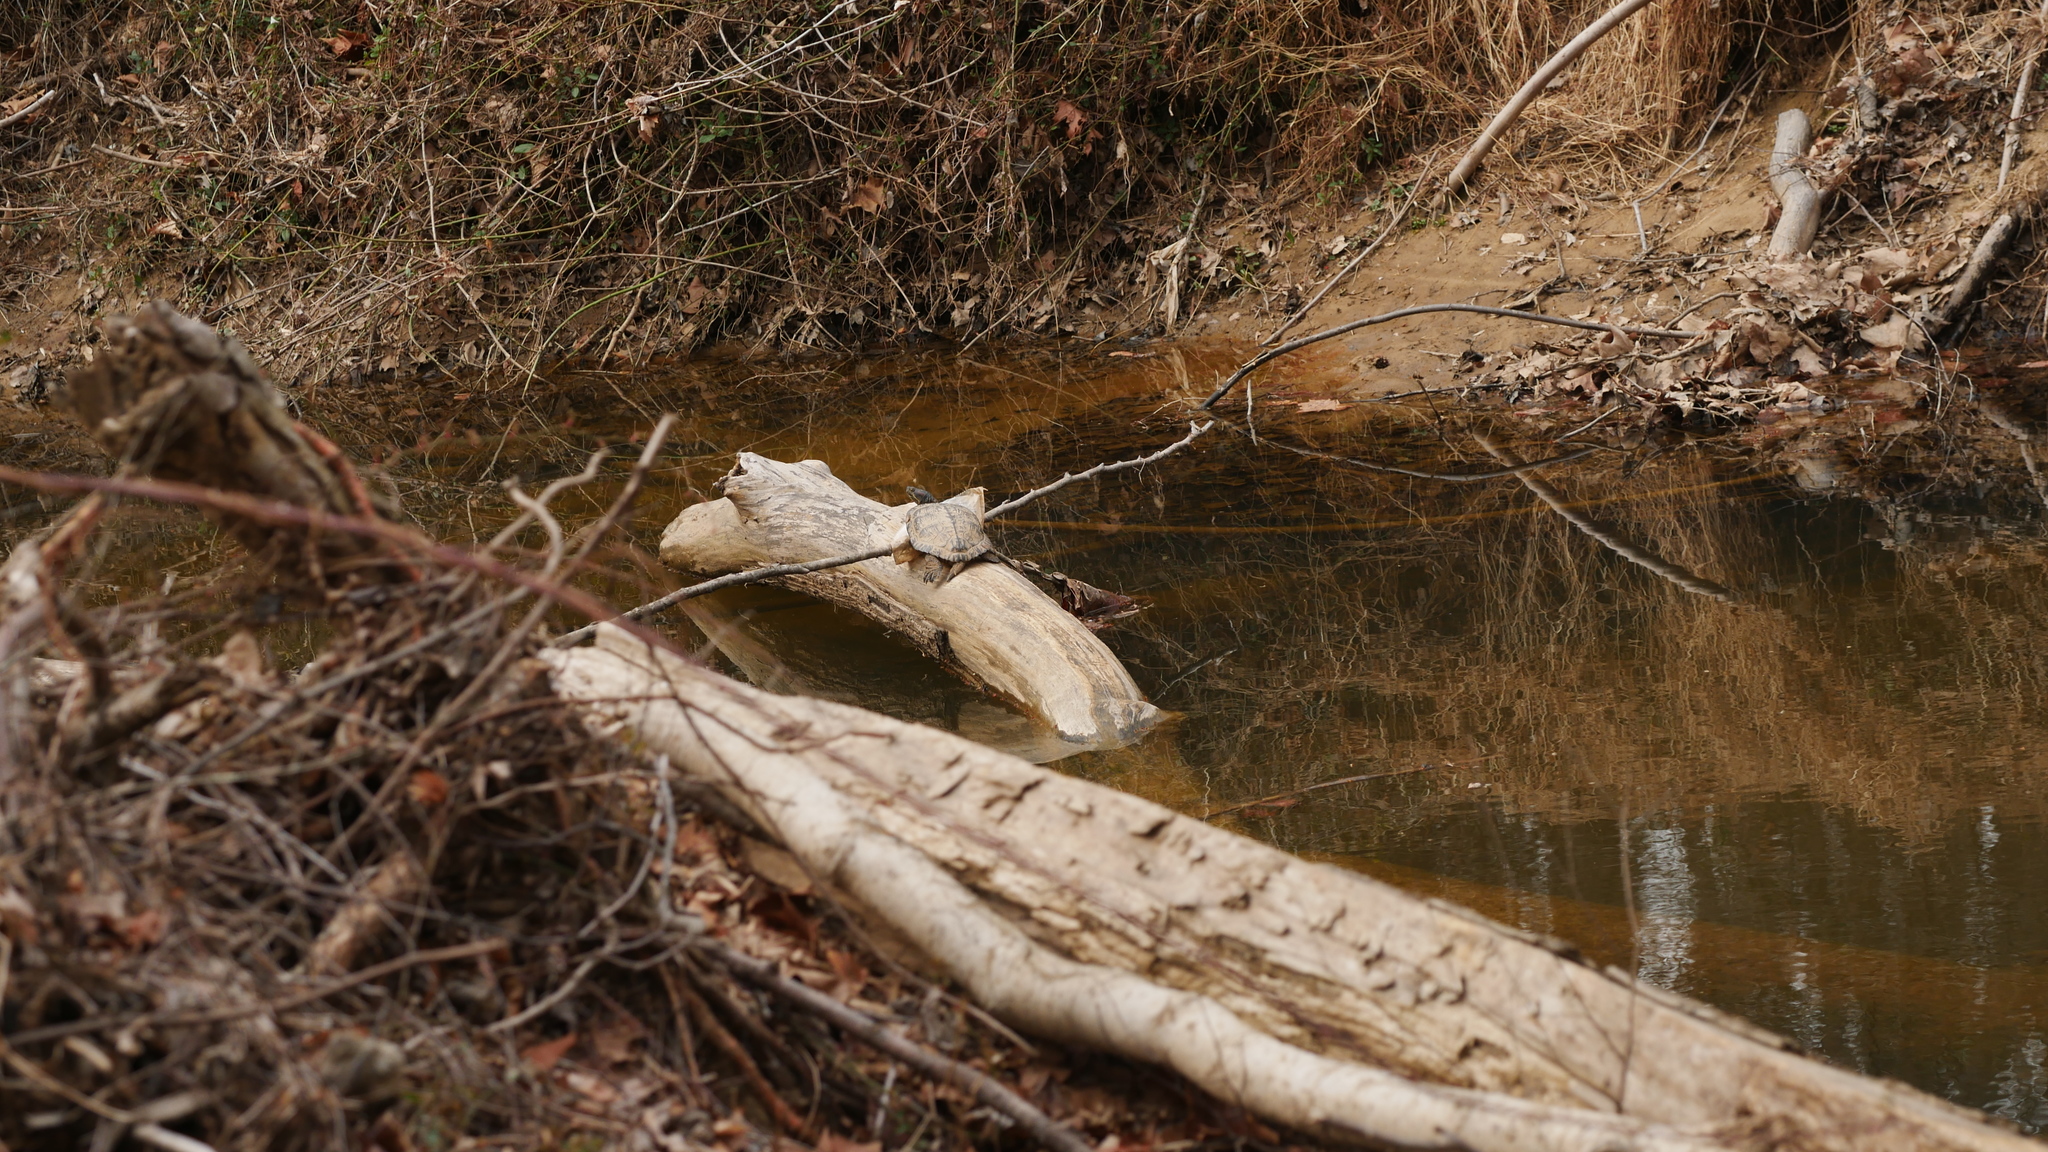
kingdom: Animalia
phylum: Chordata
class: Testudines
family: Emydidae
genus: Trachemys
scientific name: Trachemys scripta
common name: Slider
